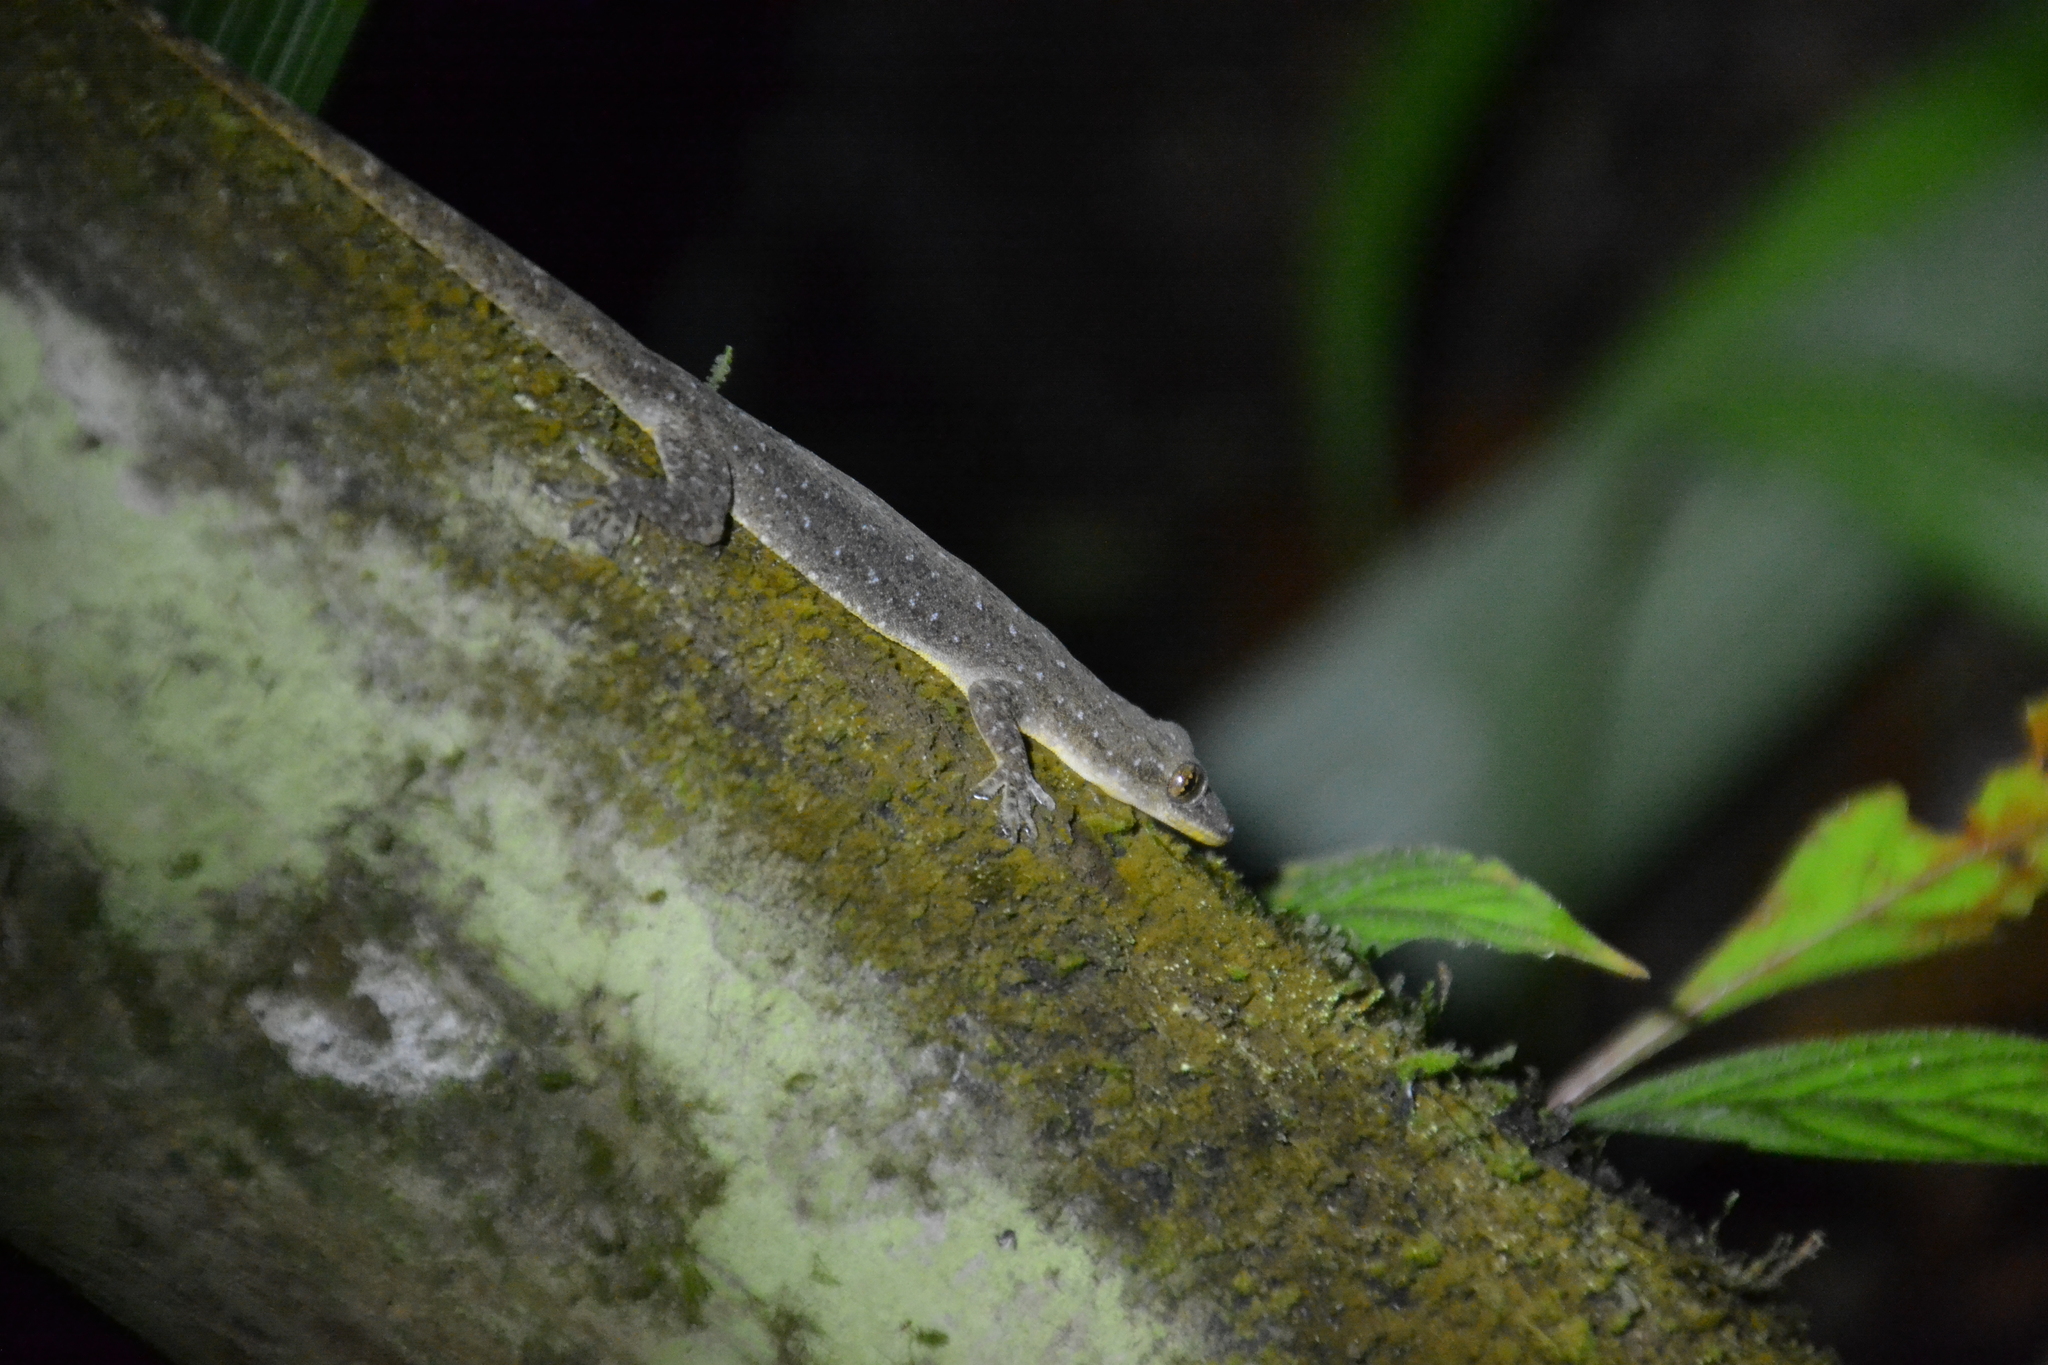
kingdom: Animalia
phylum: Chordata
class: Squamata
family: Gekkonidae
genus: Hemidactylus
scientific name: Hemidactylus garnotii
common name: Indo-pacific gecko
